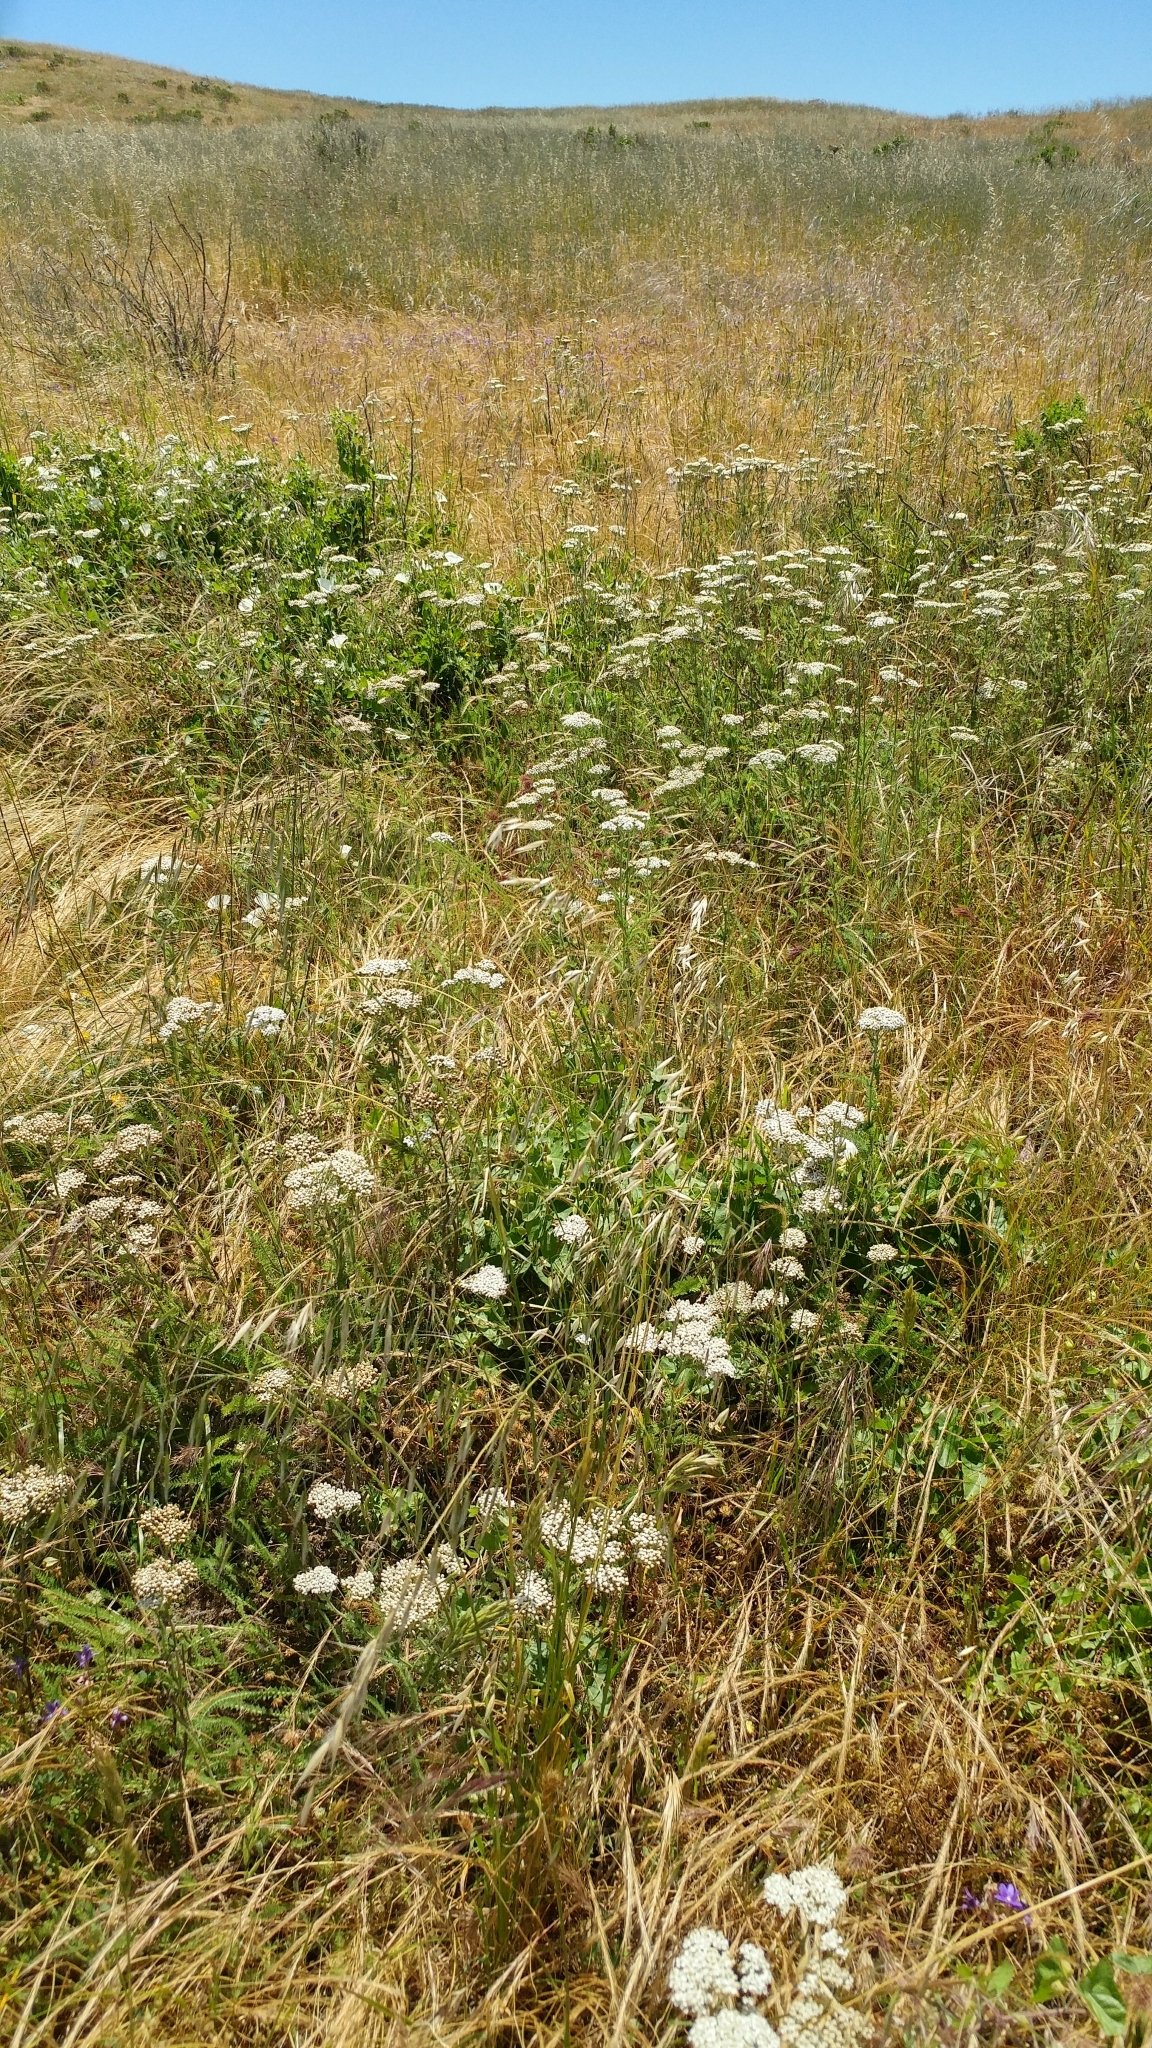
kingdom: Plantae
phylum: Tracheophyta
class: Magnoliopsida
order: Asterales
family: Asteraceae
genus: Achillea
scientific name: Achillea millefolium
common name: Yarrow
